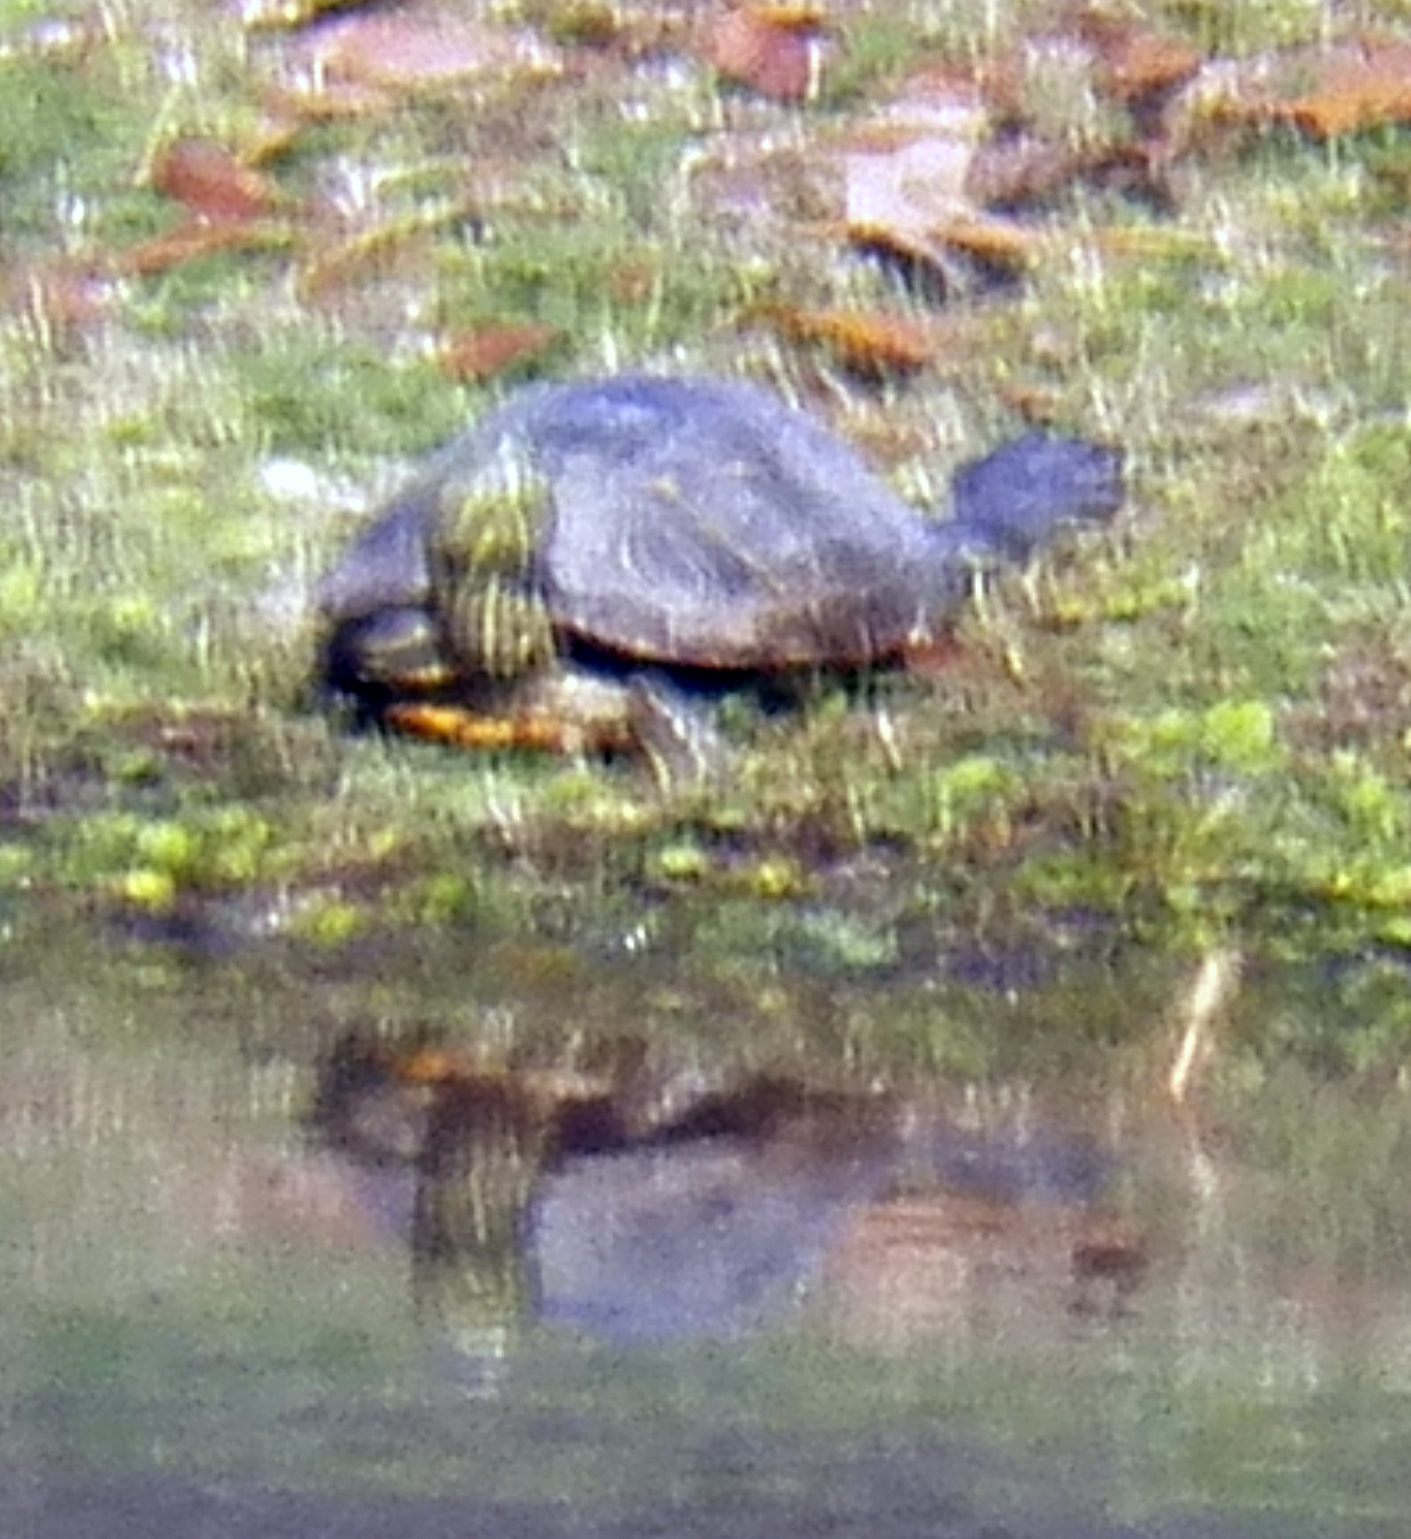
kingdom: Animalia
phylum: Chordata
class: Testudines
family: Emydidae
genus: Trachemys
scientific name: Trachemys scripta
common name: Slider
